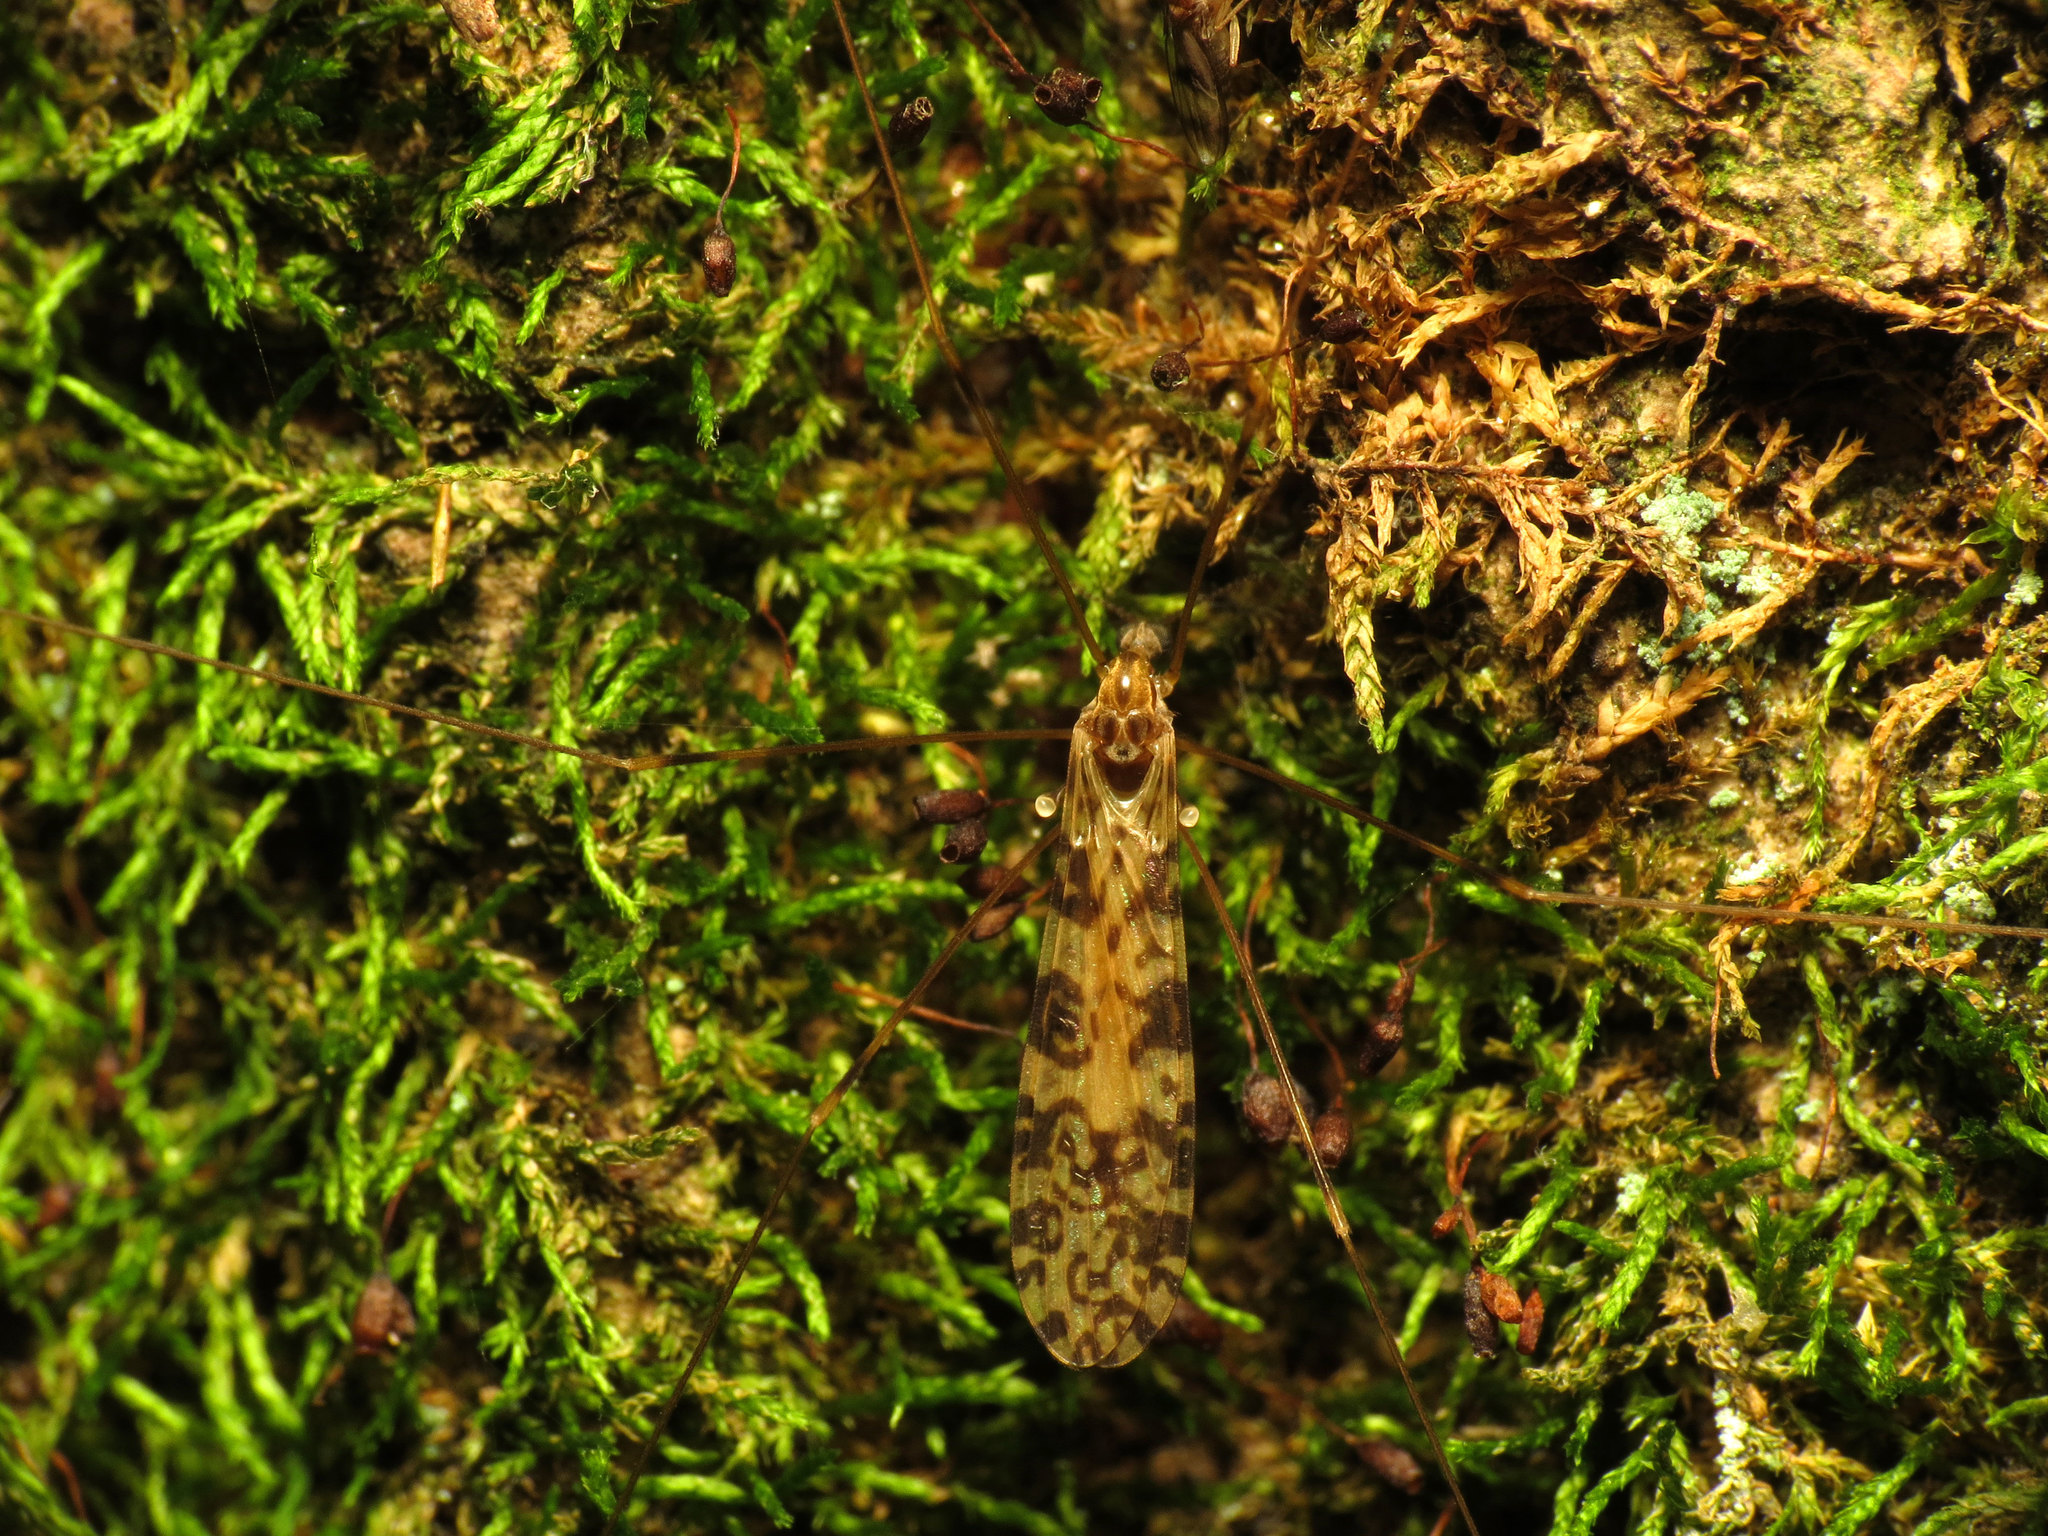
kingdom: Animalia
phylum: Arthropoda
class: Insecta
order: Diptera
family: Limoniidae
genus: Limonia
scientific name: Limonia annulata
